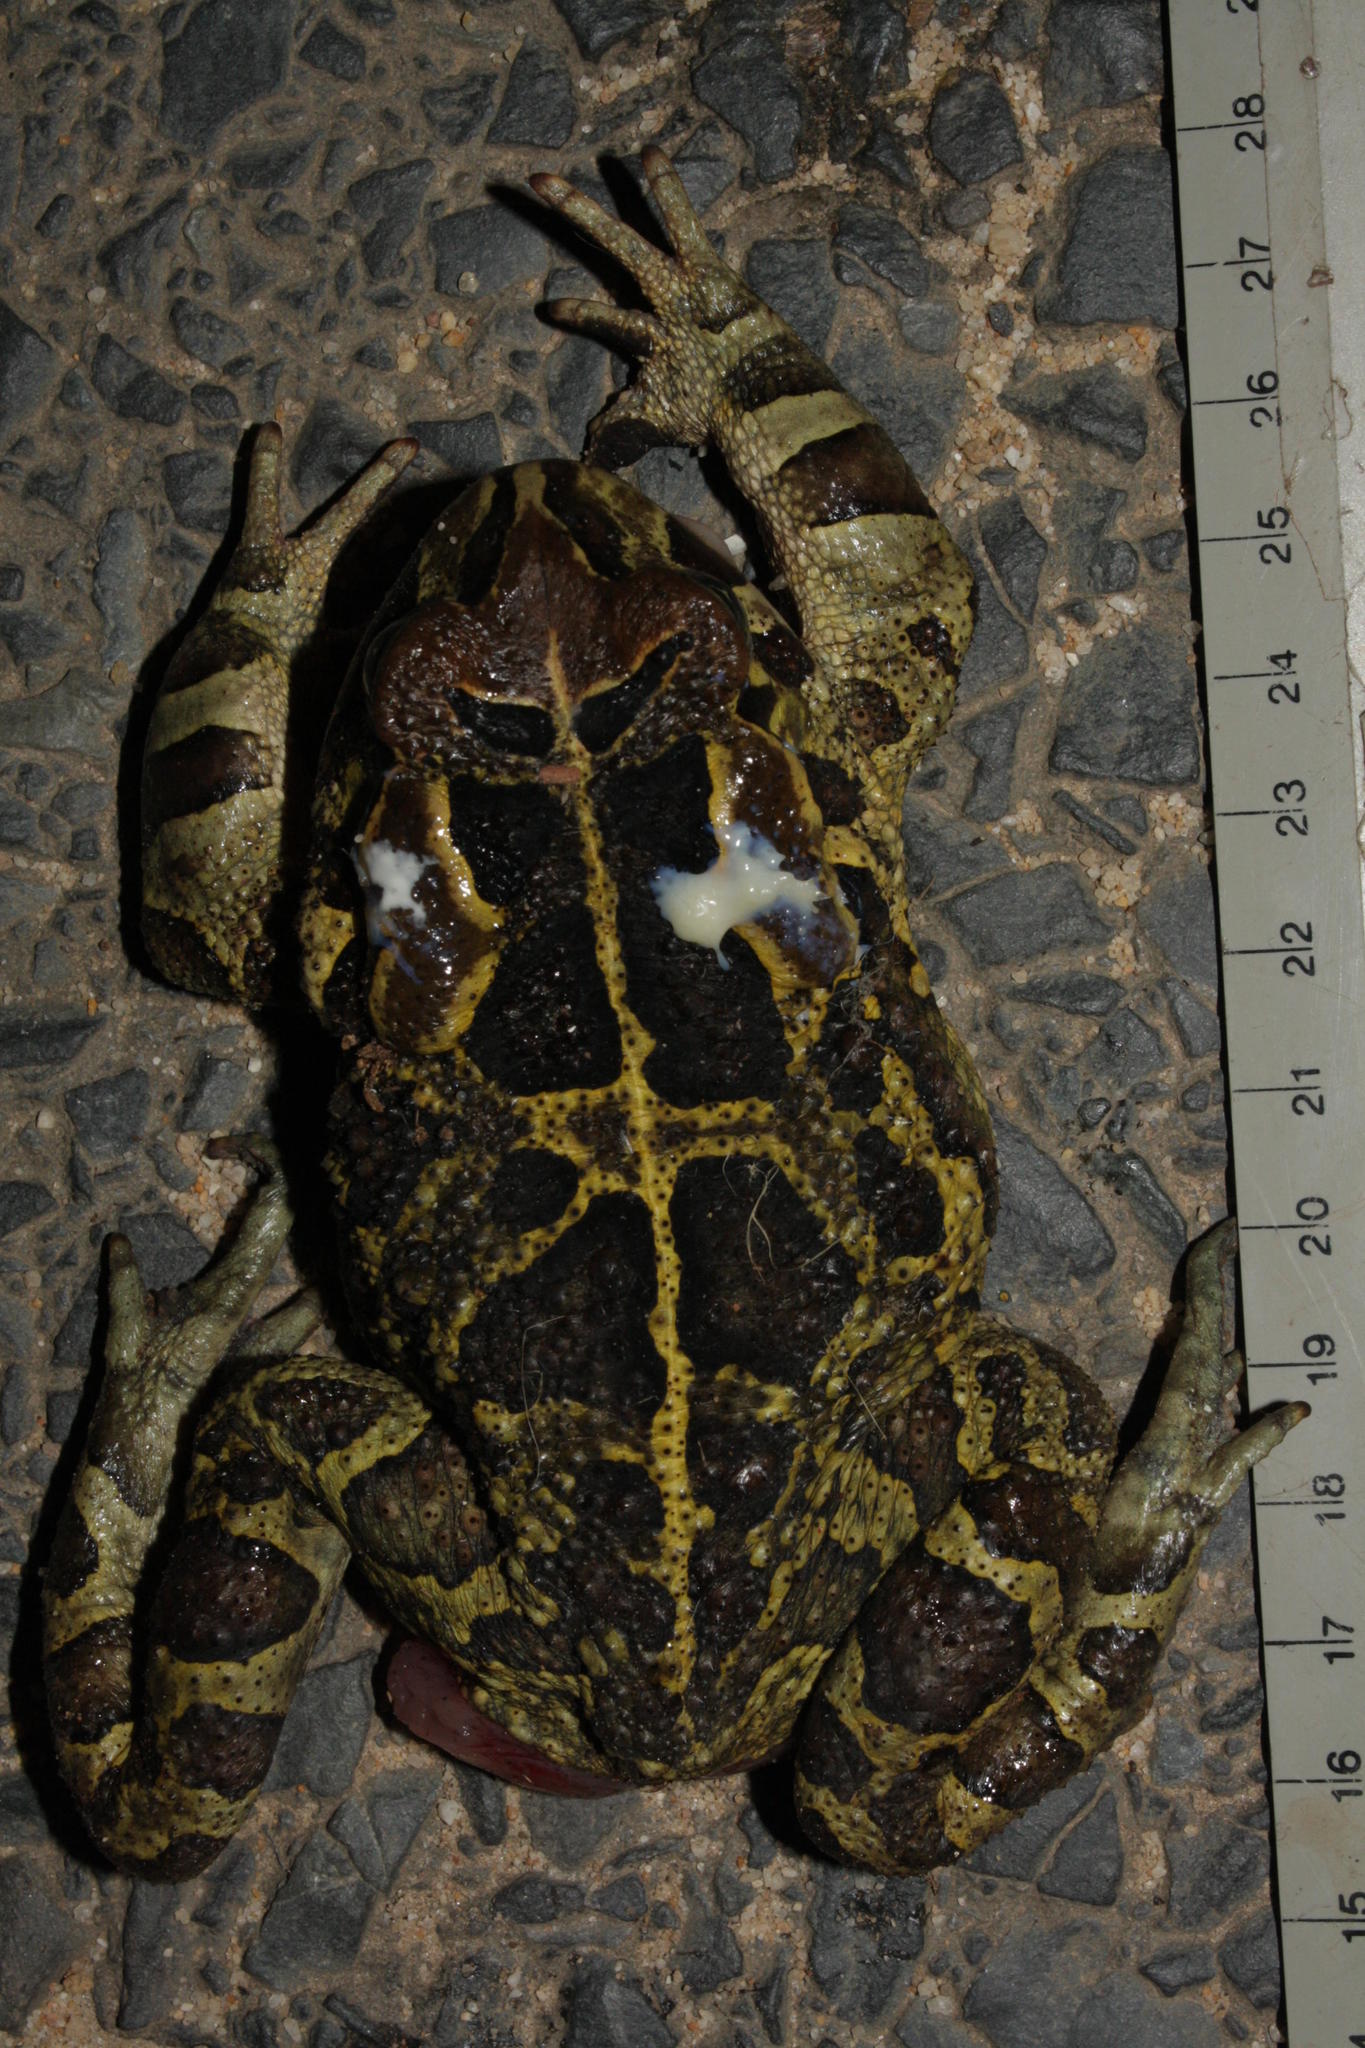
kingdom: Animalia
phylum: Chordata
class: Amphibia
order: Anura
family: Bufonidae
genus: Sclerophrys
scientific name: Sclerophrys pantherina
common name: Panther toad
